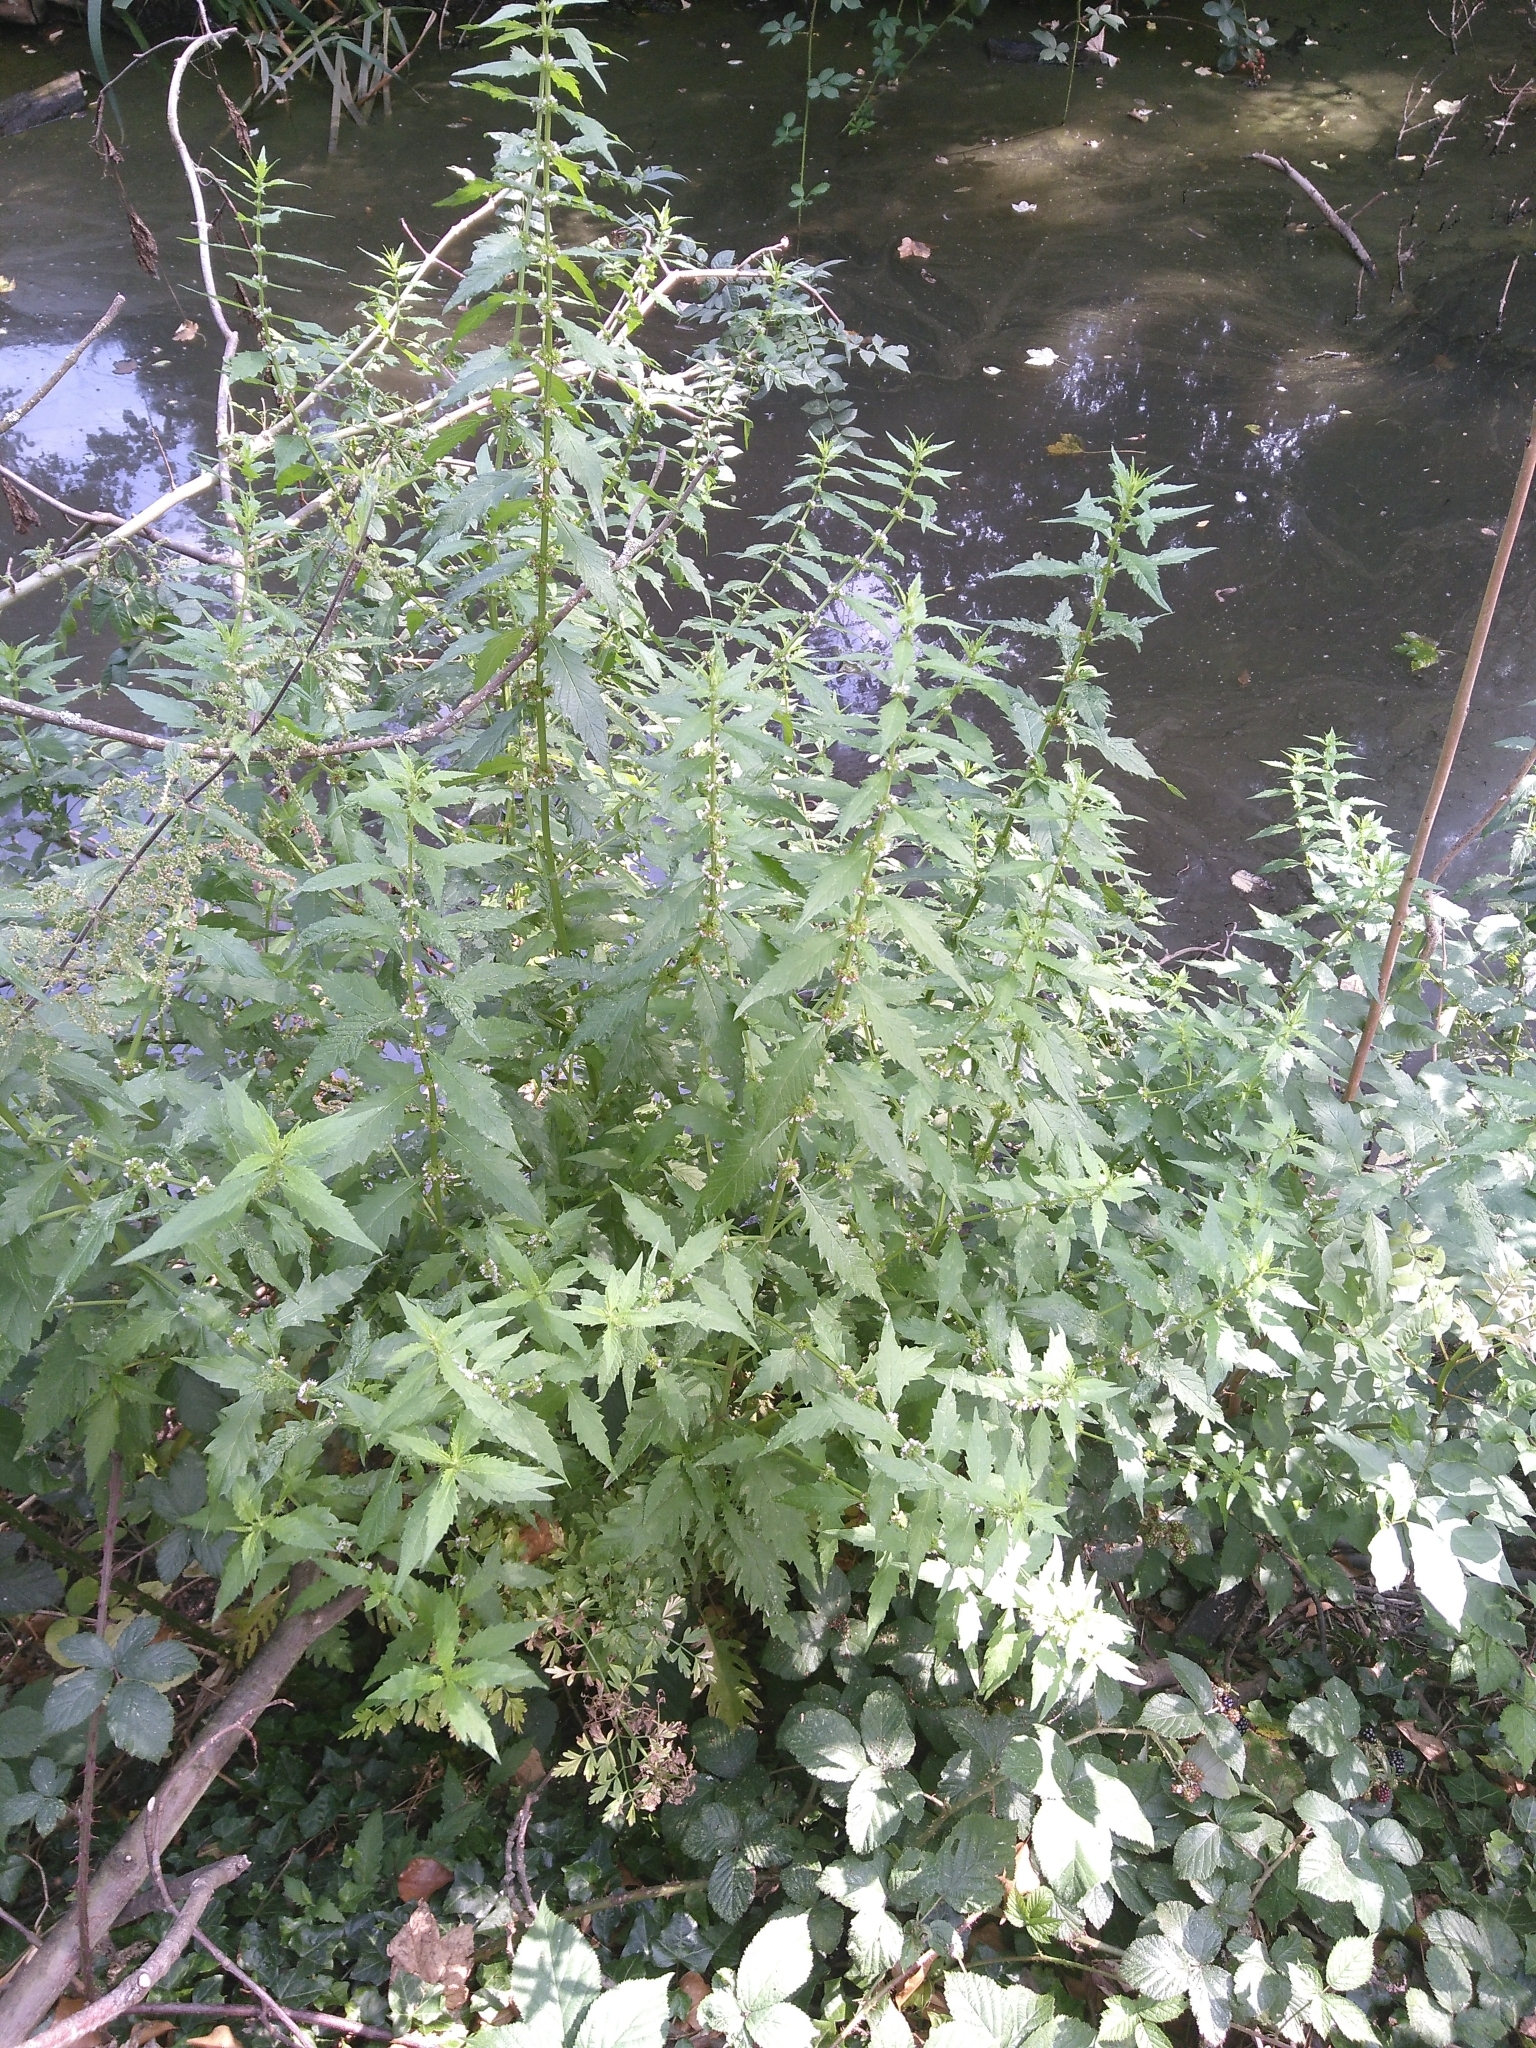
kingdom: Plantae
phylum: Tracheophyta
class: Magnoliopsida
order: Lamiales
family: Lamiaceae
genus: Lycopus
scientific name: Lycopus europaeus
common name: European bugleweed
